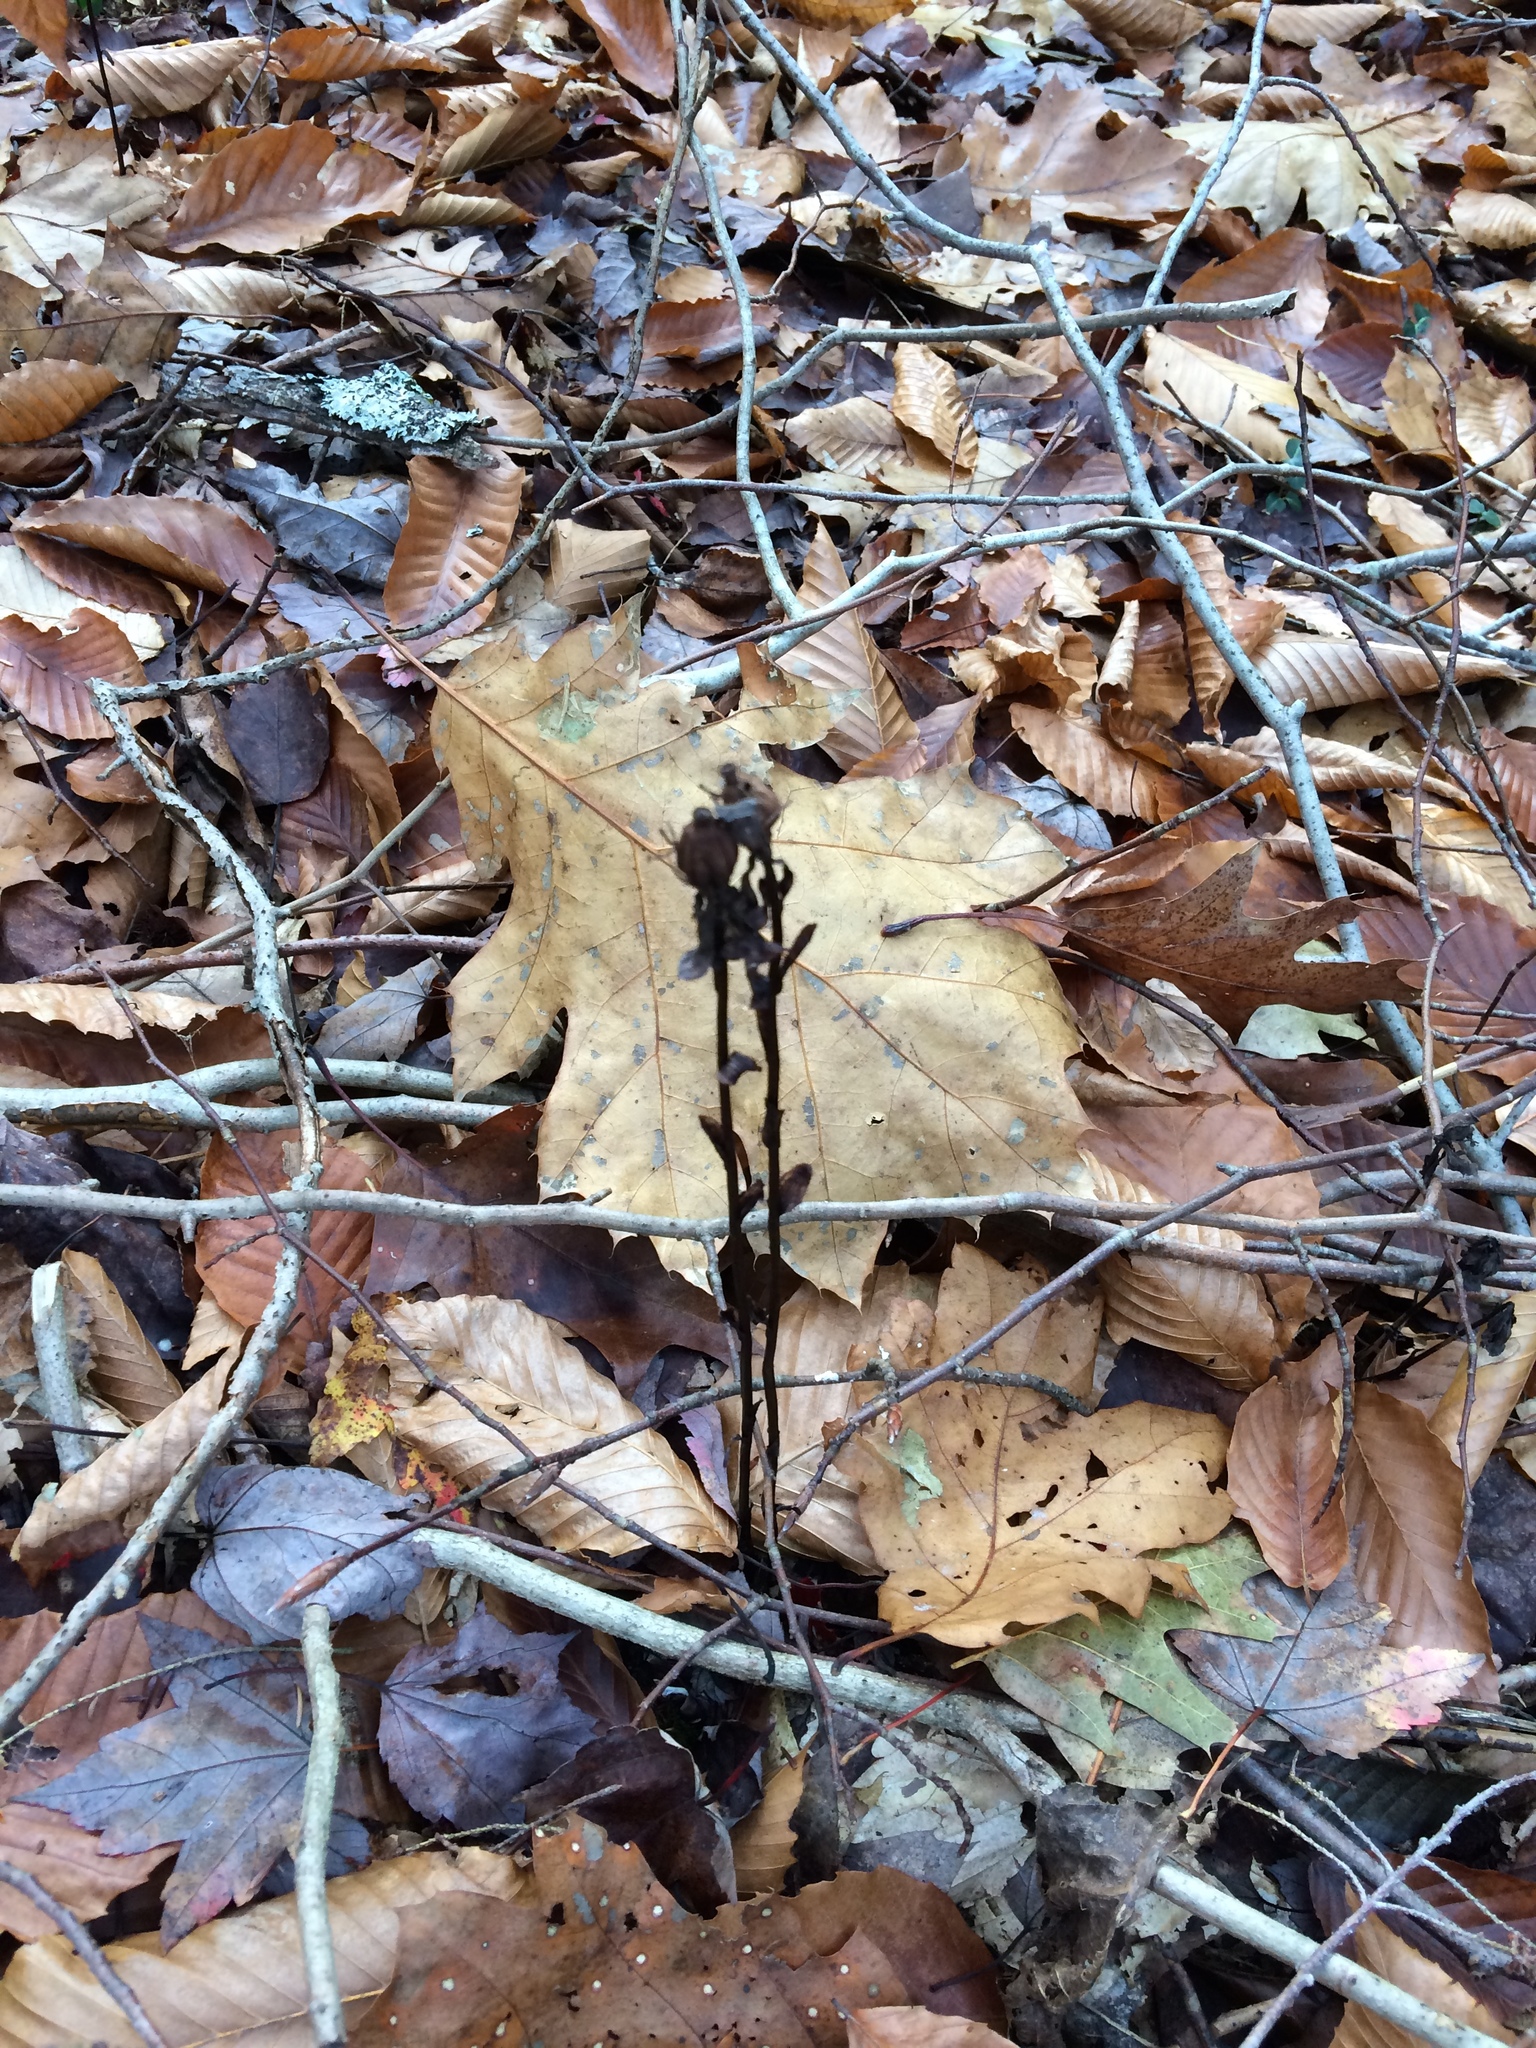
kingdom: Plantae
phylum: Tracheophyta
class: Magnoliopsida
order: Ericales
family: Ericaceae
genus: Monotropa
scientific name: Monotropa uniflora
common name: Convulsion root
